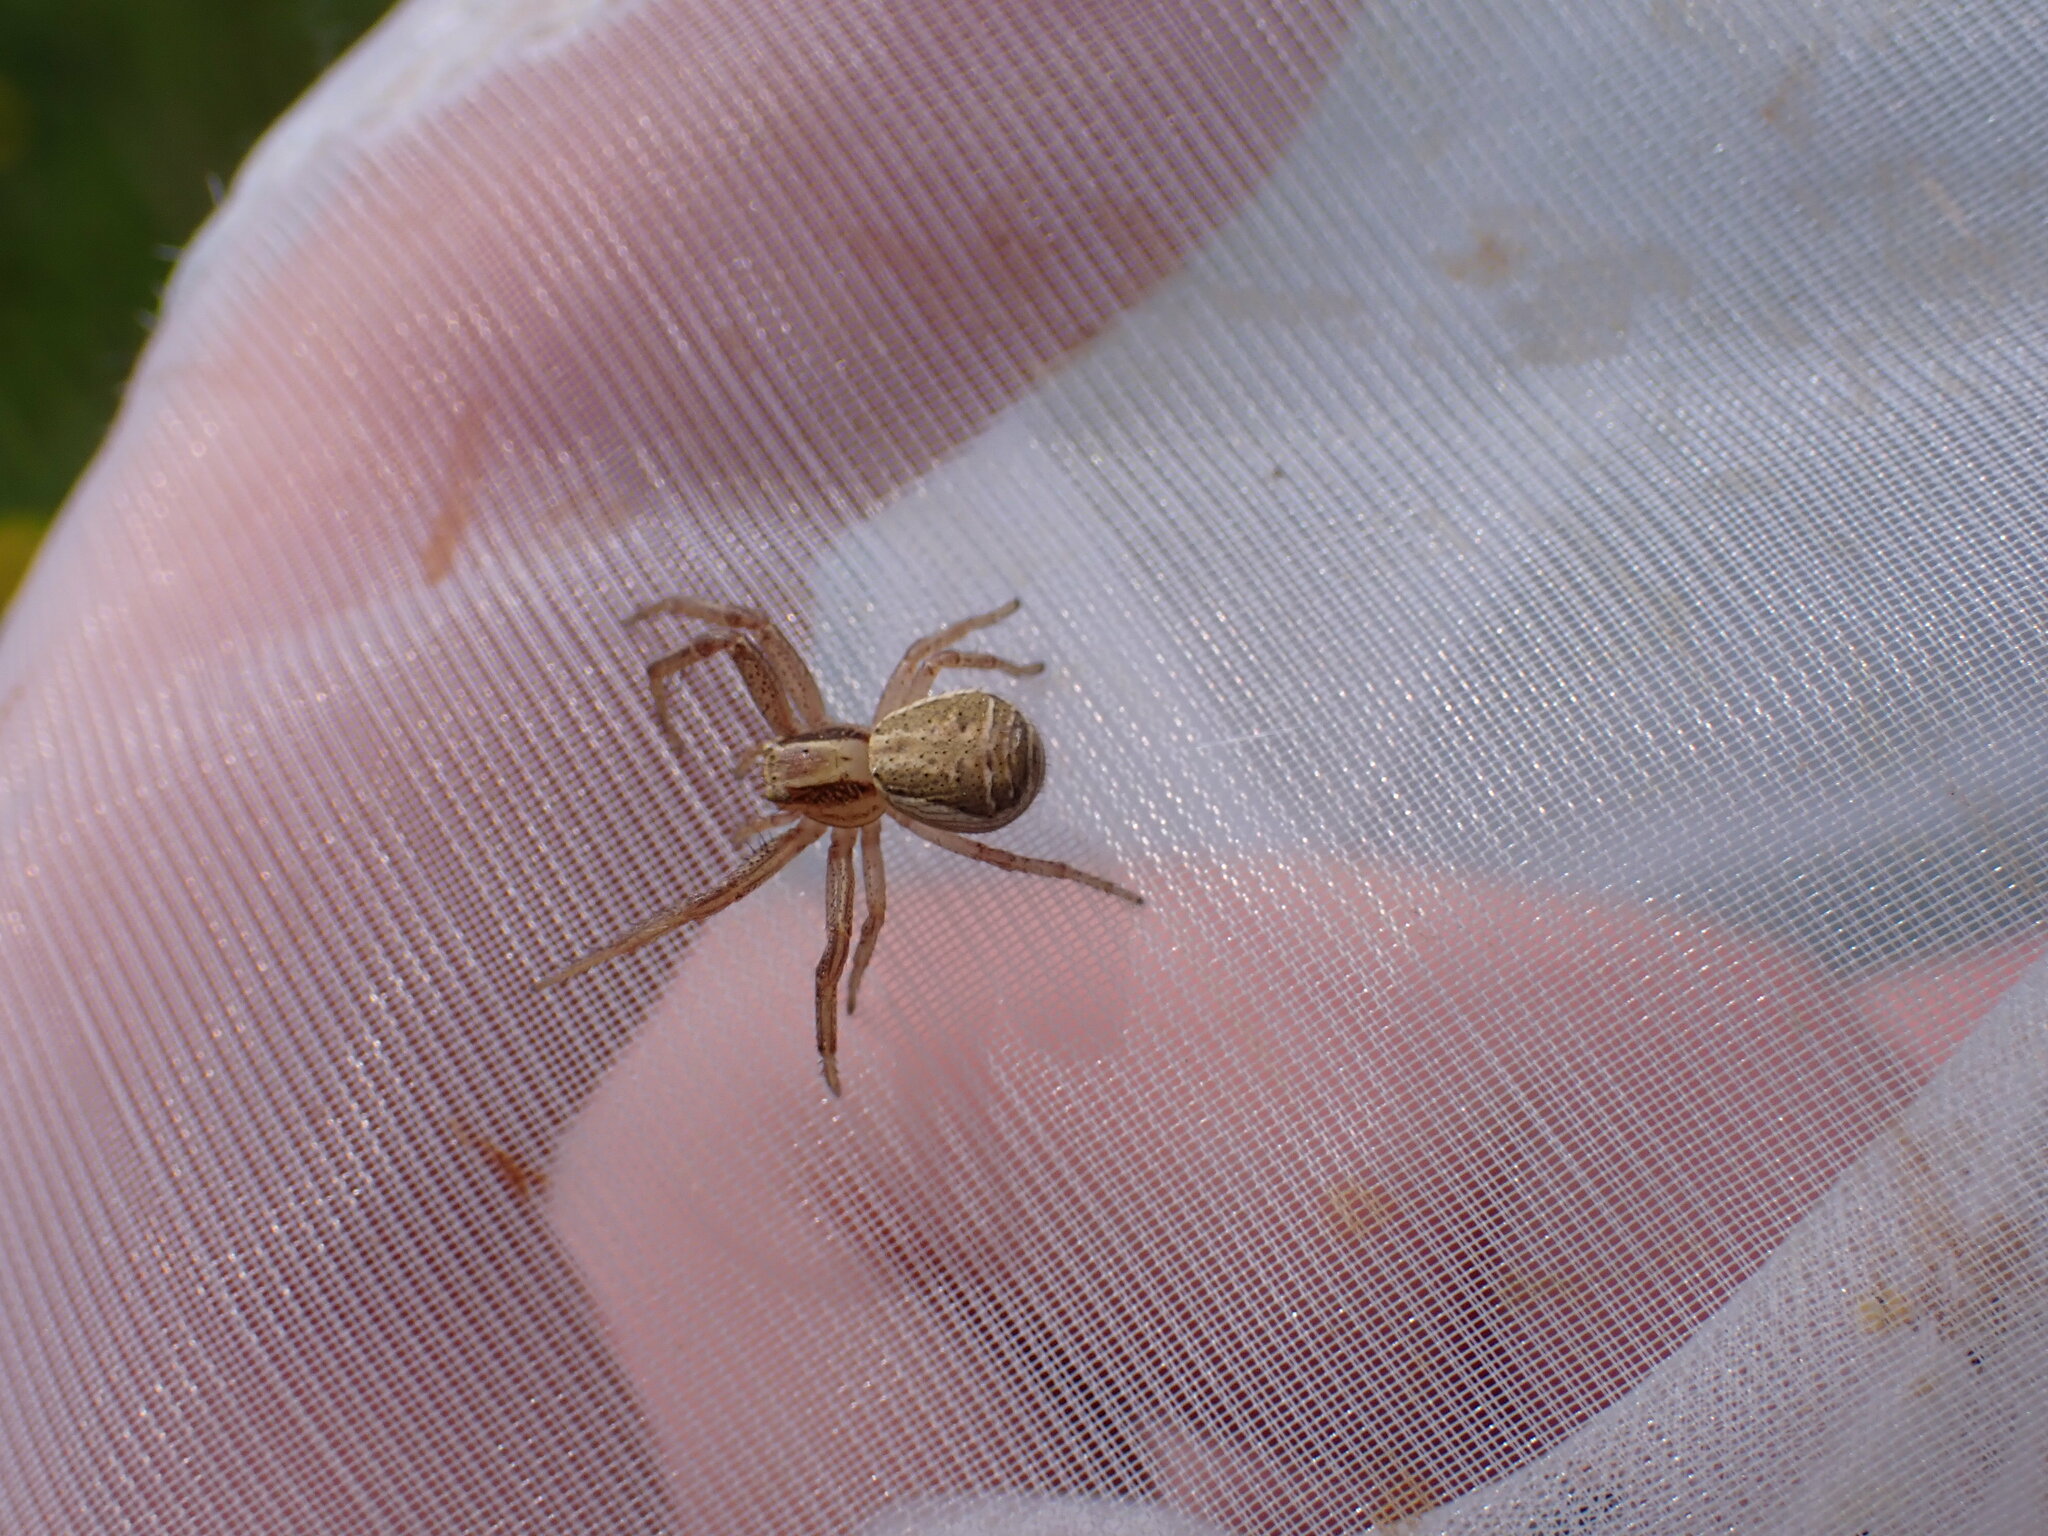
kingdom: Animalia
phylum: Arthropoda
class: Arachnida
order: Araneae
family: Thomisidae
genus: Xysticus
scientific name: Xysticus ulmi
